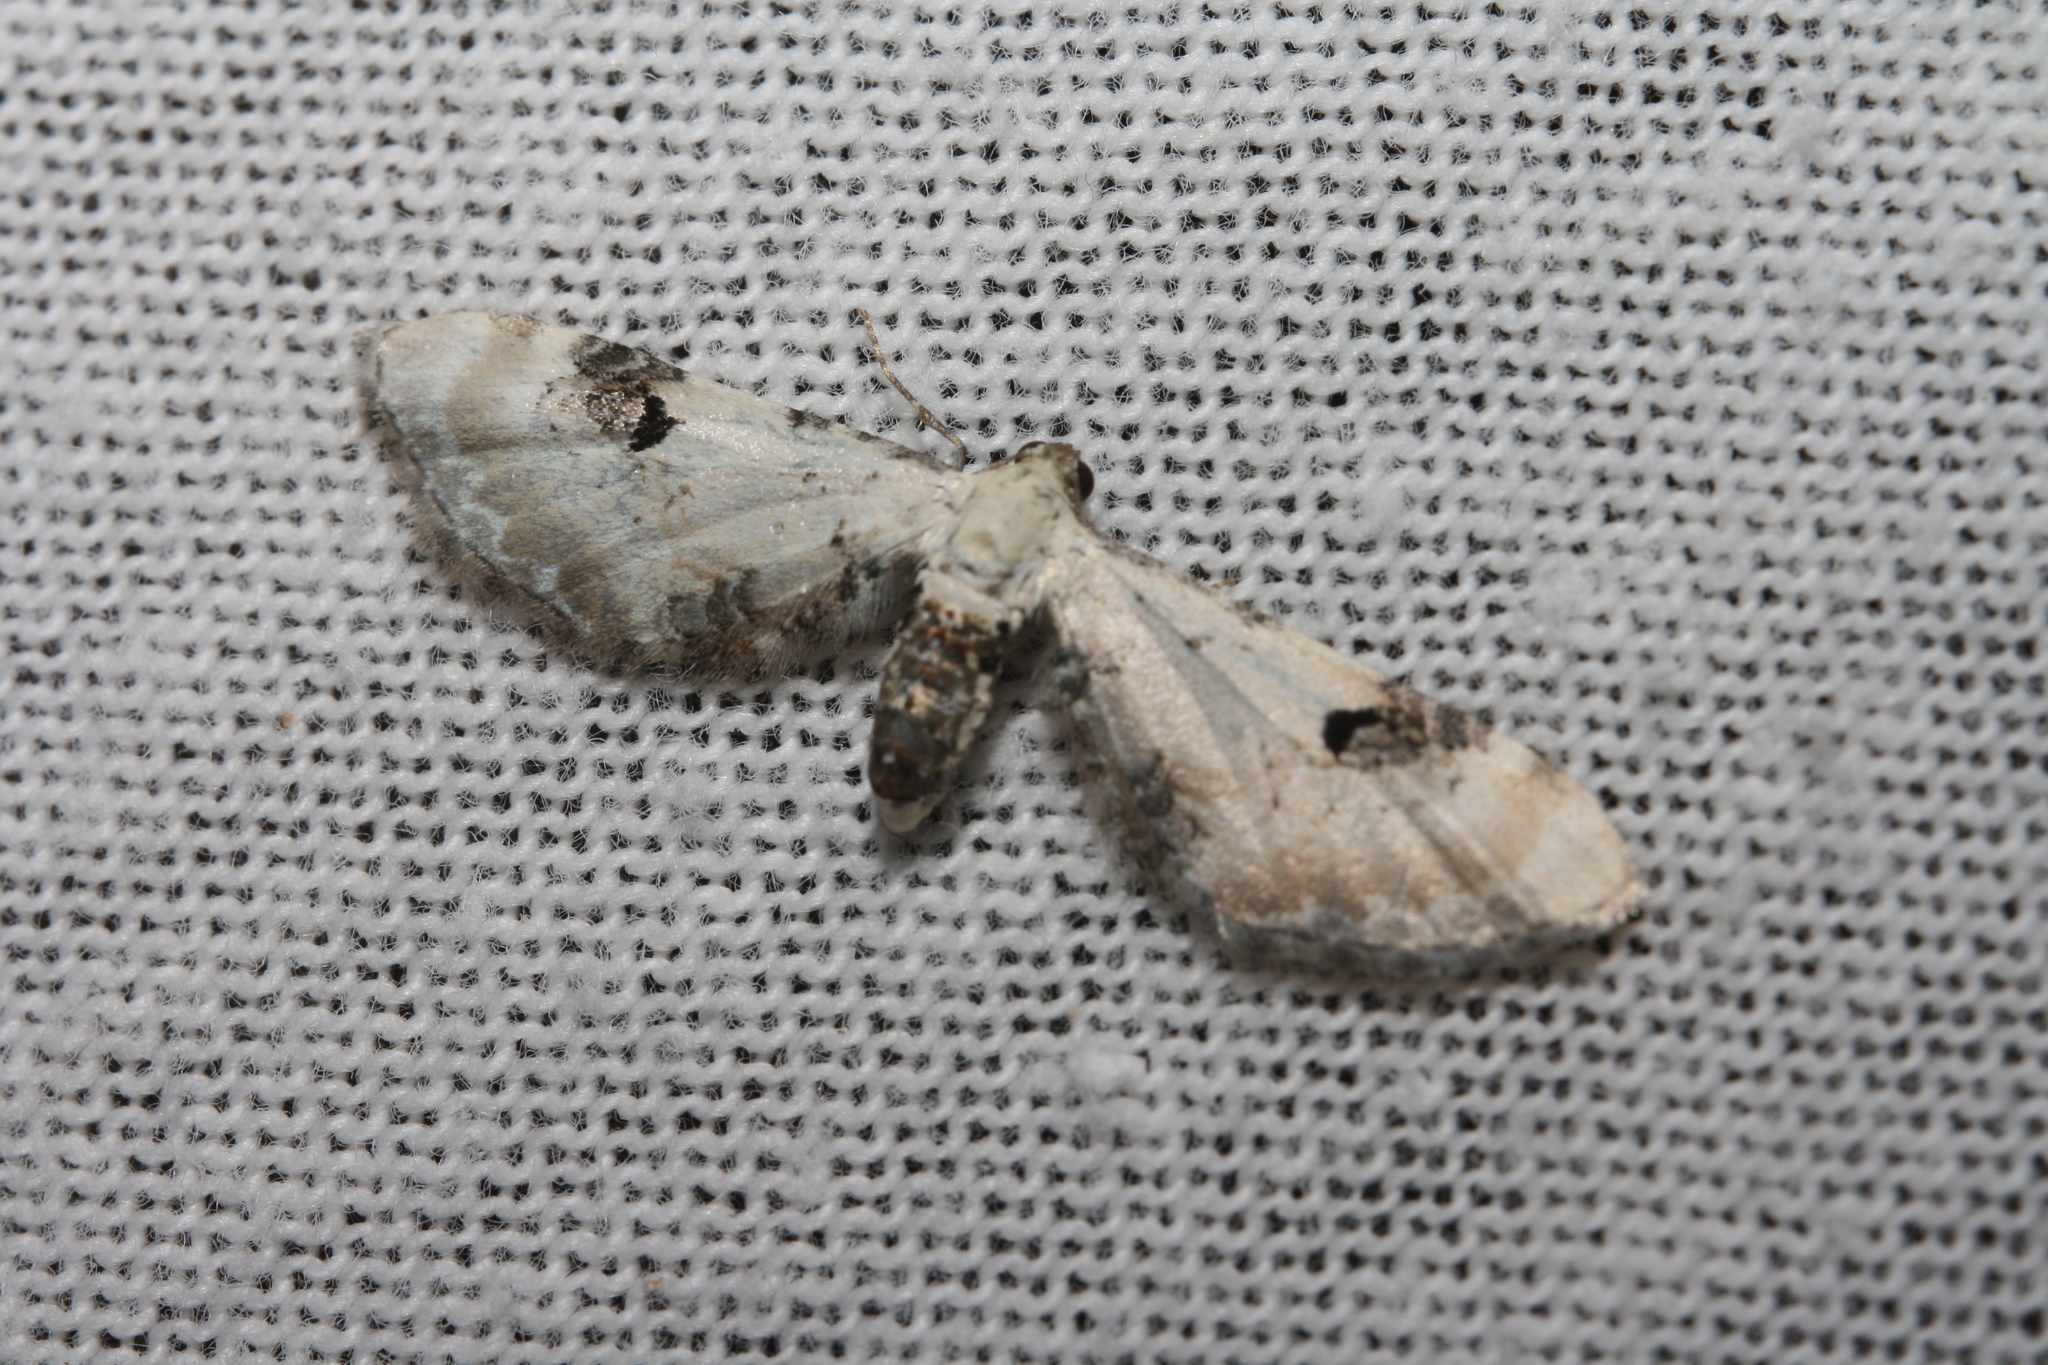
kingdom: Animalia
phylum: Arthropoda
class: Insecta
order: Lepidoptera
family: Geometridae
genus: Eupithecia
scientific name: Eupithecia centaureata
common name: Lime-speck pug
